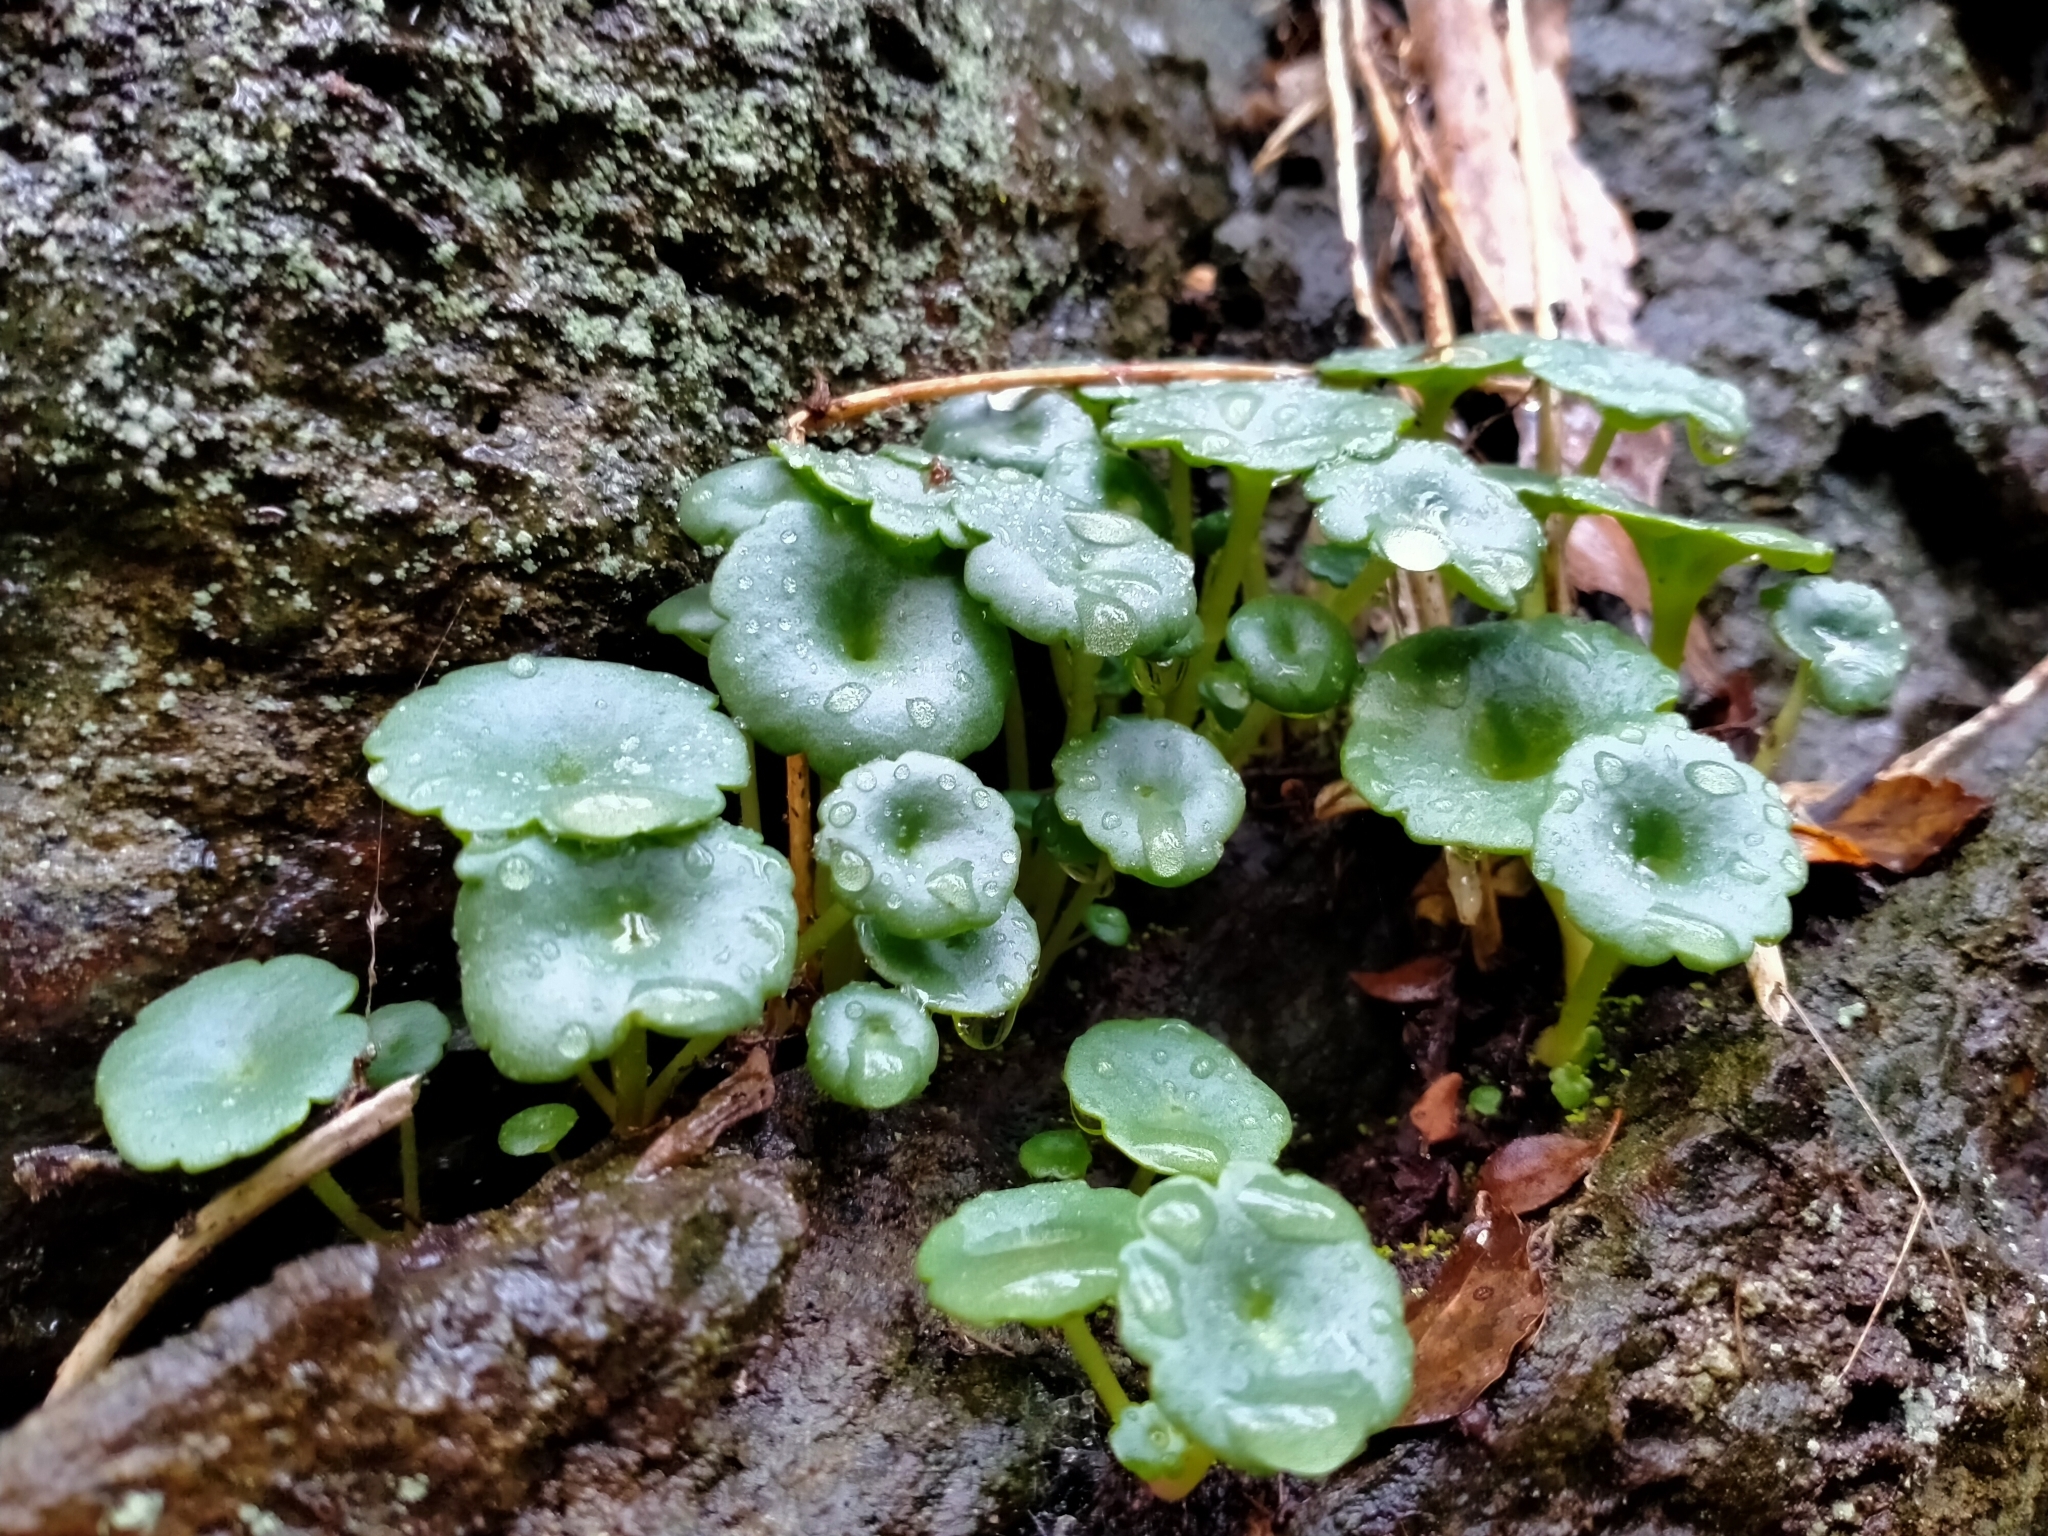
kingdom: Plantae
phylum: Tracheophyta
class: Magnoliopsida
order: Saxifragales
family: Crassulaceae
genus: Umbilicus
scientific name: Umbilicus rupestris
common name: Navelwort
